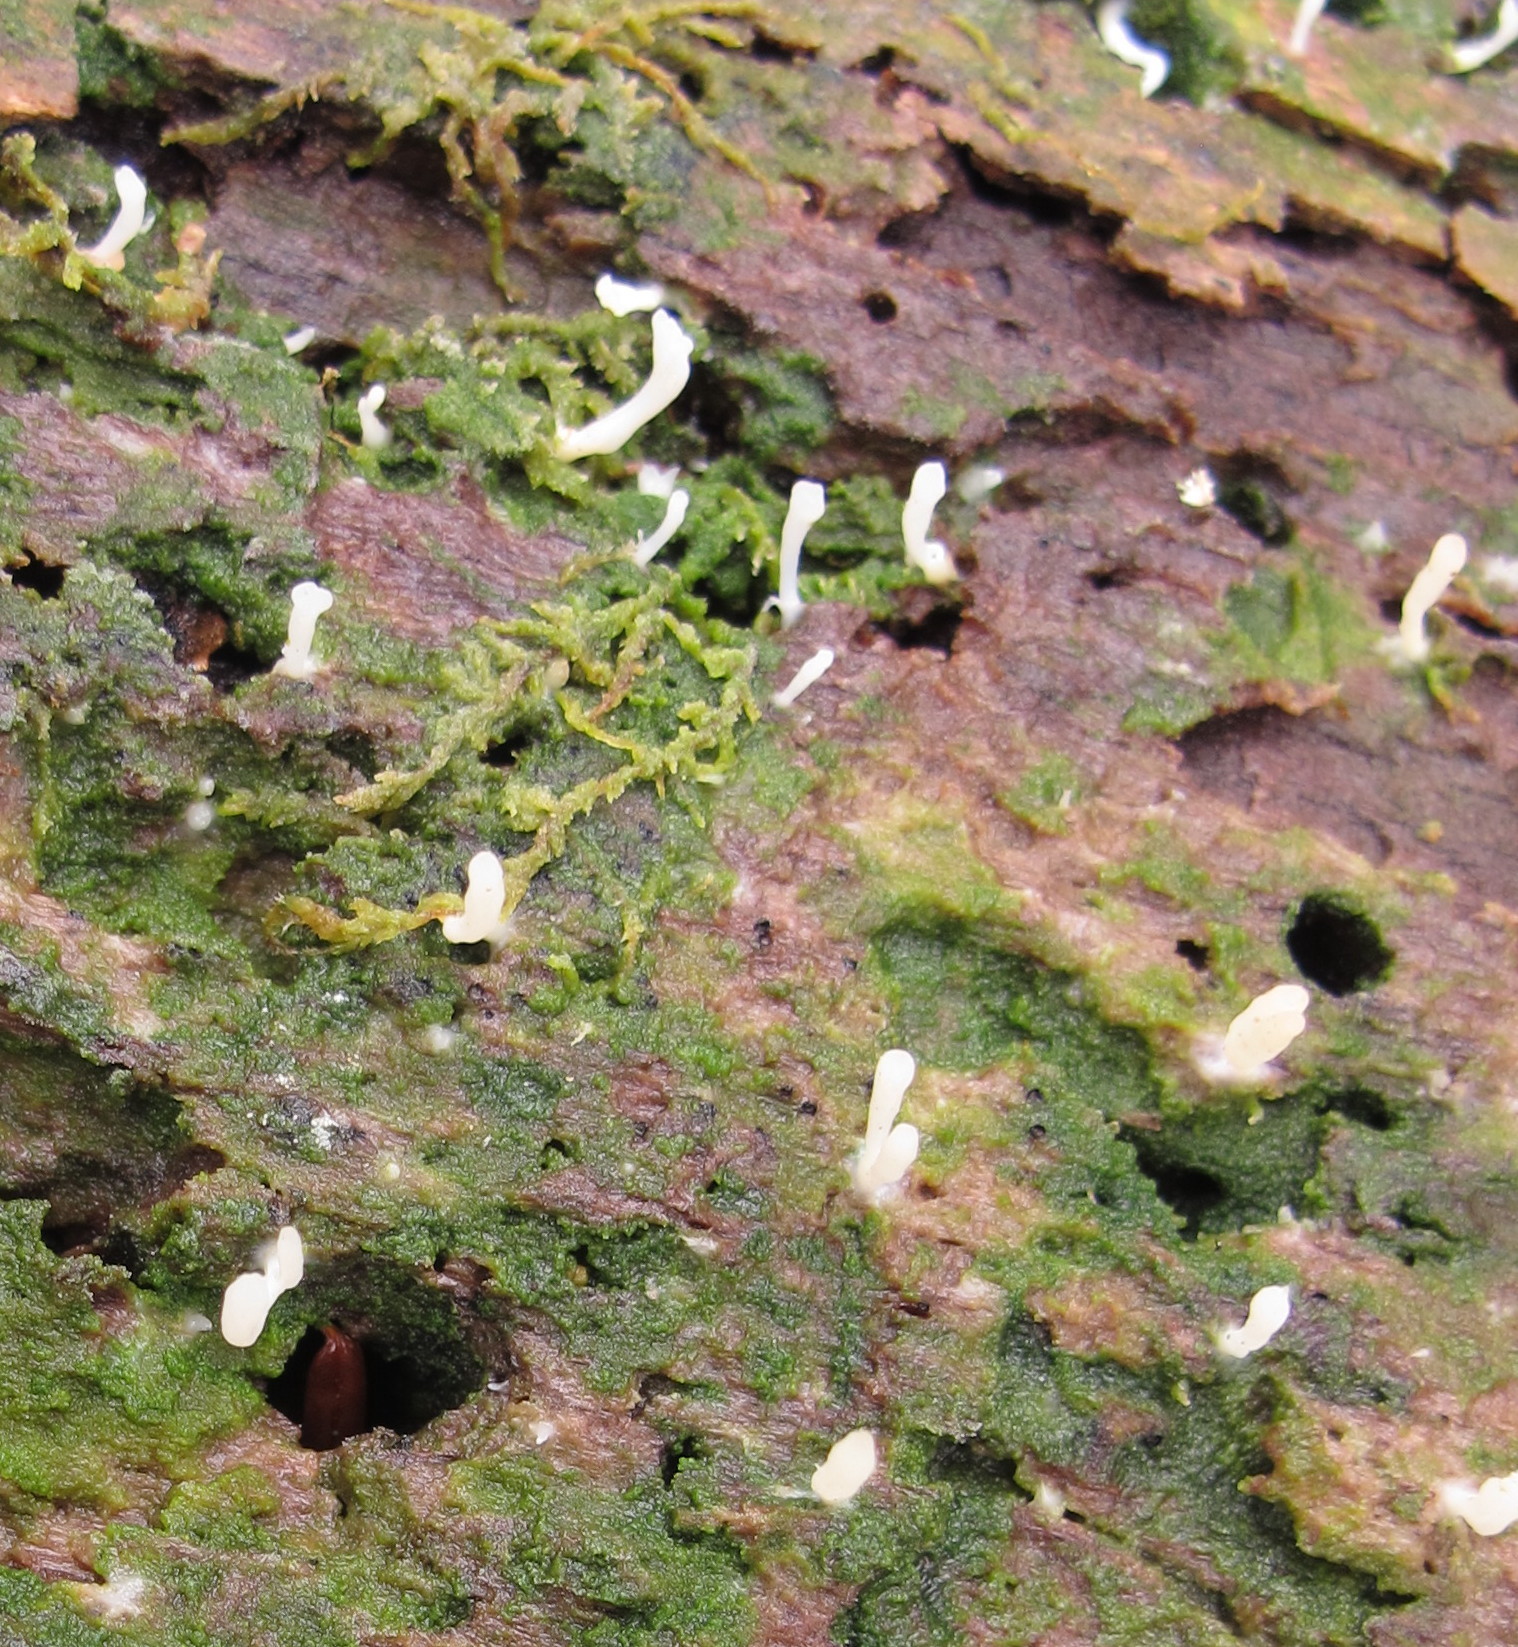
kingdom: Fungi
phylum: Basidiomycota
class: Agaricomycetes
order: Cantharellales
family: Hydnaceae
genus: Multiclavula
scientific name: Multiclavula mucida
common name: White green-algae coral
